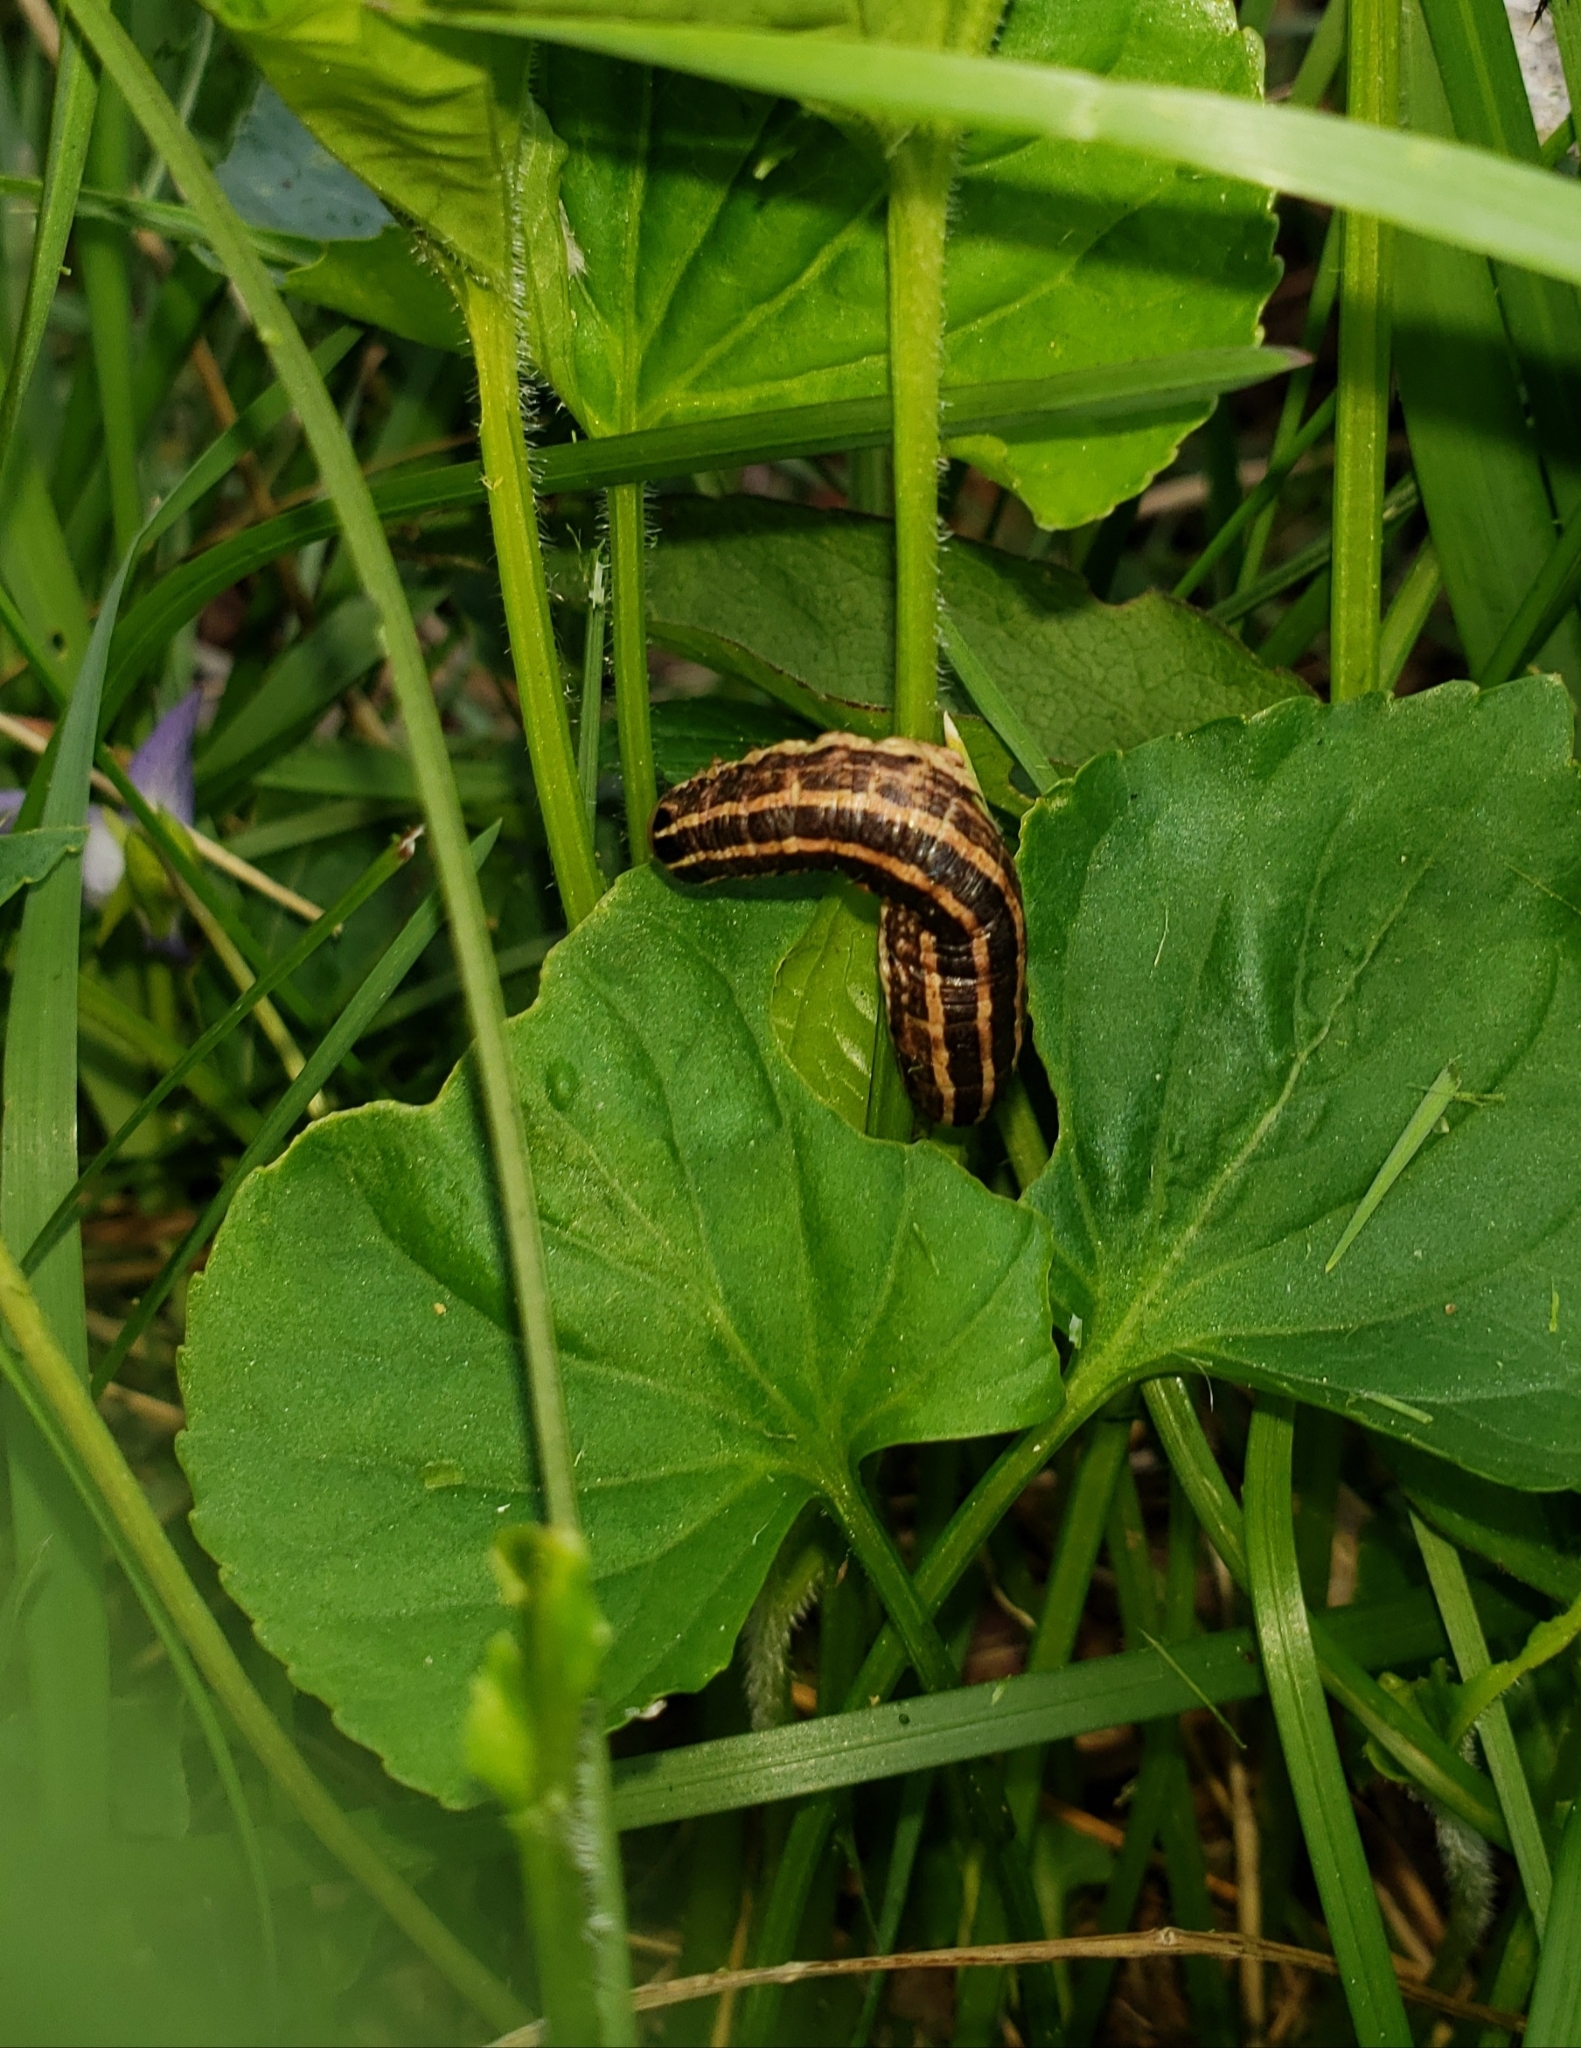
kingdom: Animalia
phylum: Arthropoda
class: Insecta
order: Lepidoptera
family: Noctuidae
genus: Nephelodes
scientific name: Nephelodes minians
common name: Bronzed cutworm
